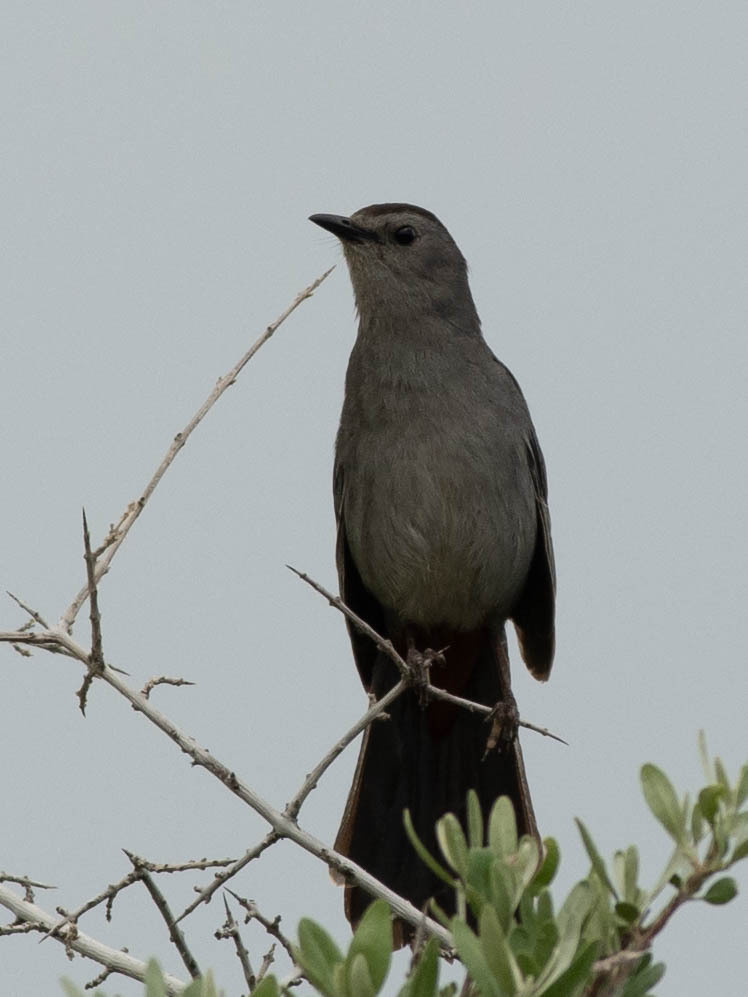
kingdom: Animalia
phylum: Chordata
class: Aves
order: Passeriformes
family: Mimidae
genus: Dumetella
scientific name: Dumetella carolinensis
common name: Gray catbird
